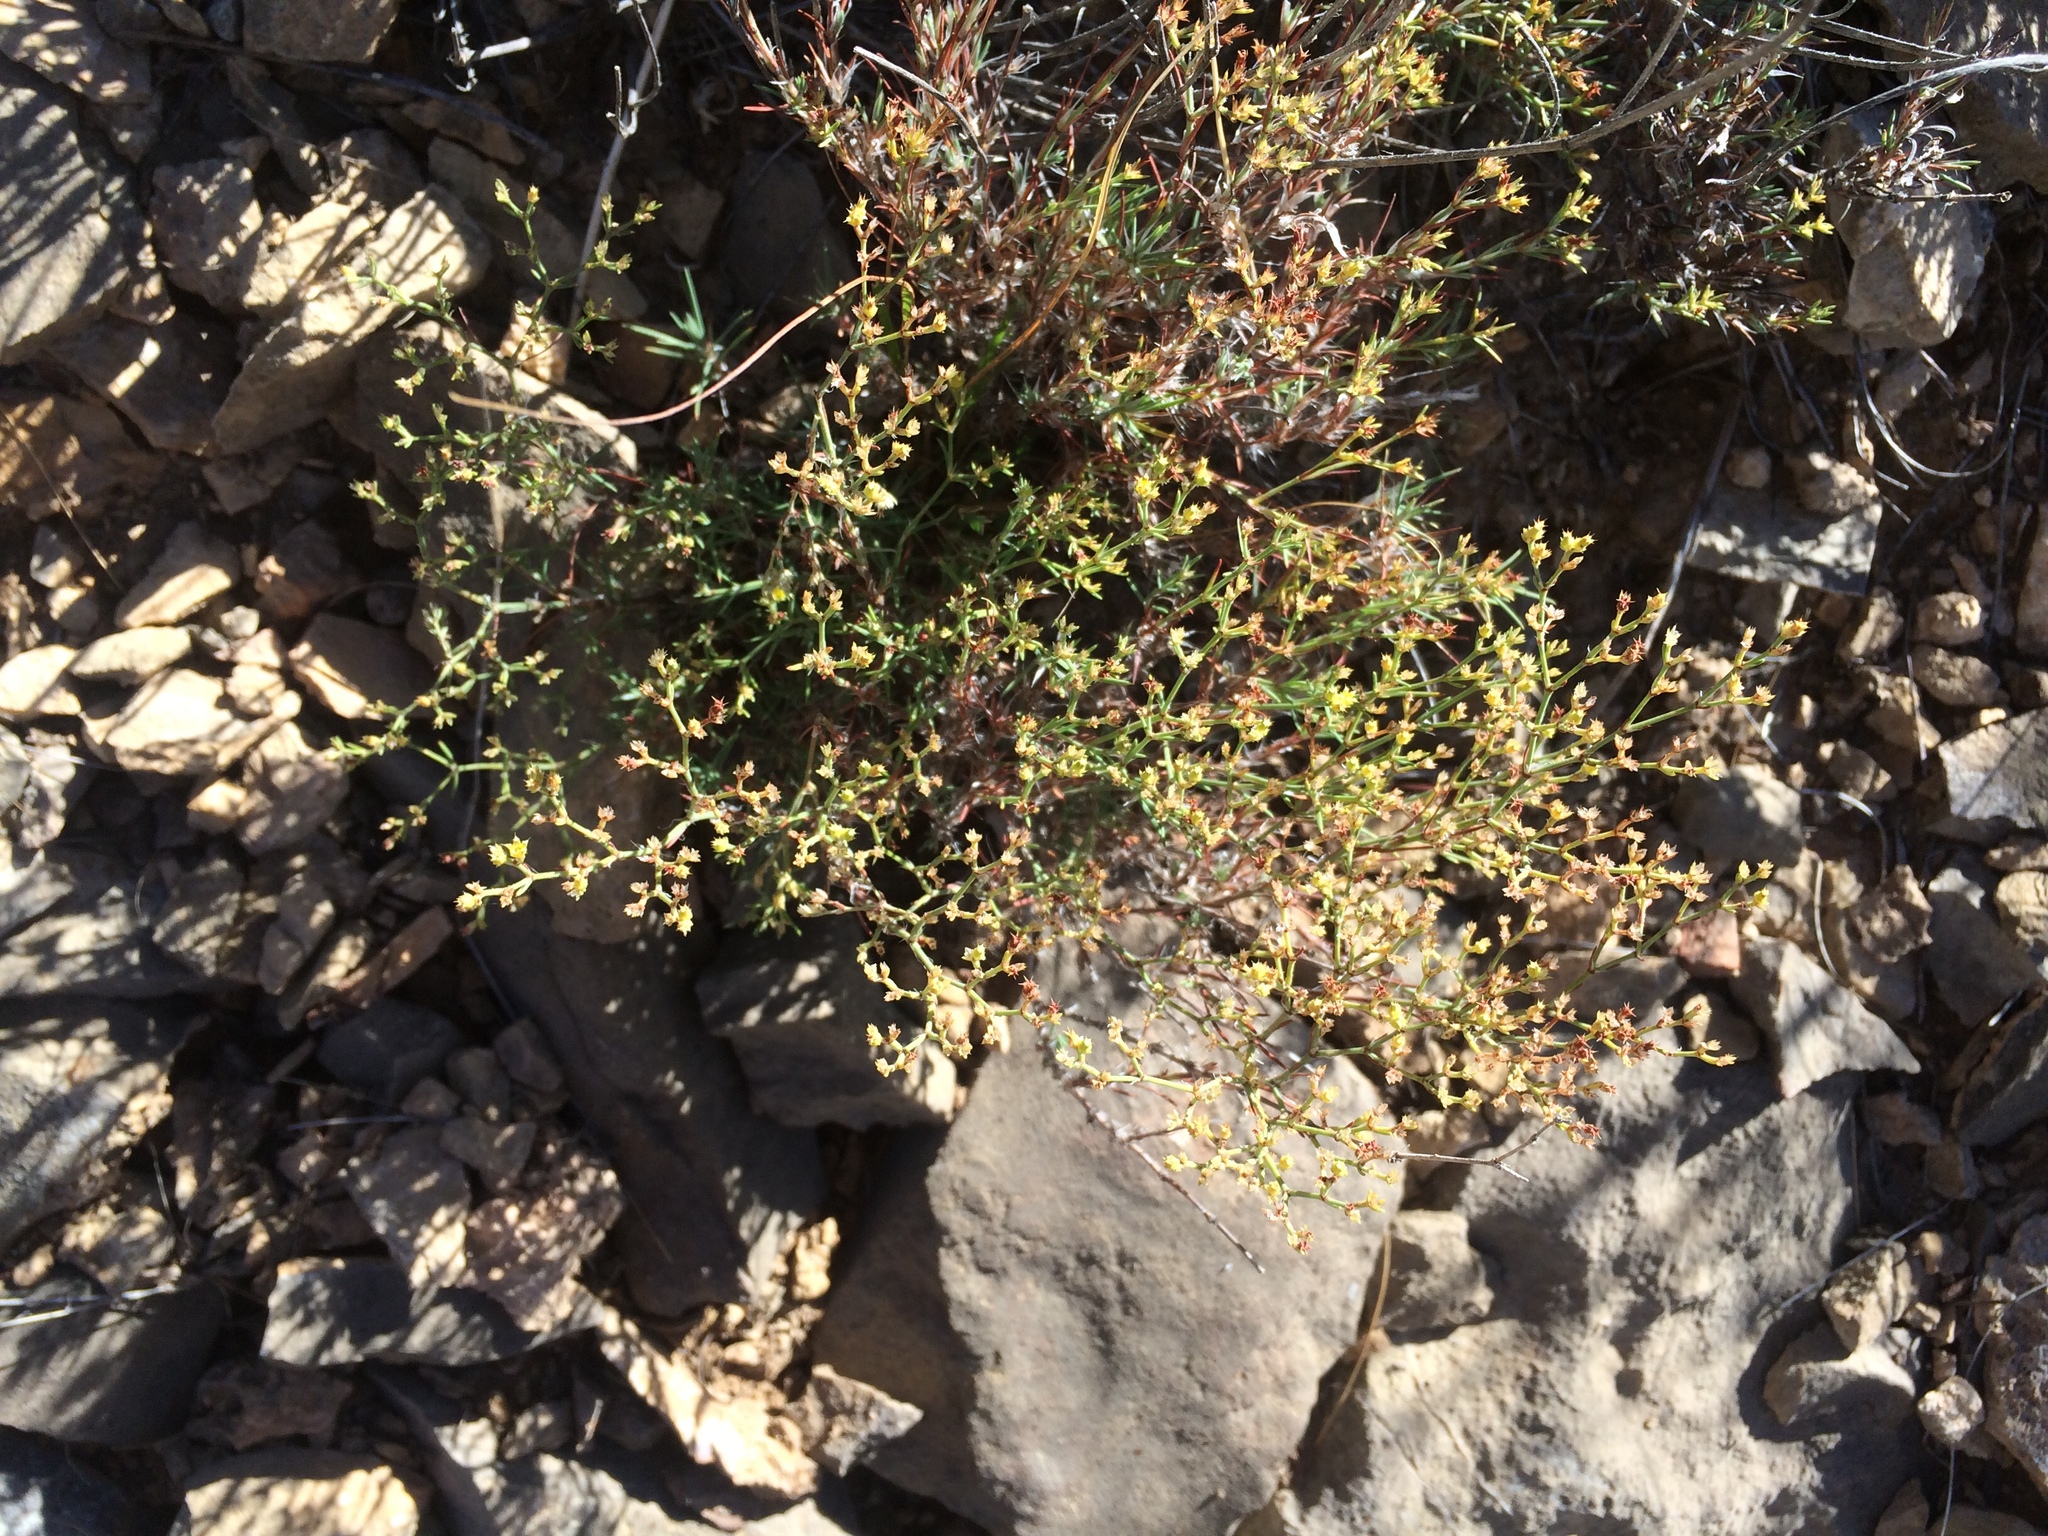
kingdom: Plantae
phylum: Tracheophyta
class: Magnoliopsida
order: Caryophyllales
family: Caryophyllaceae
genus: Paronychia
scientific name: Paronychia jamesii
